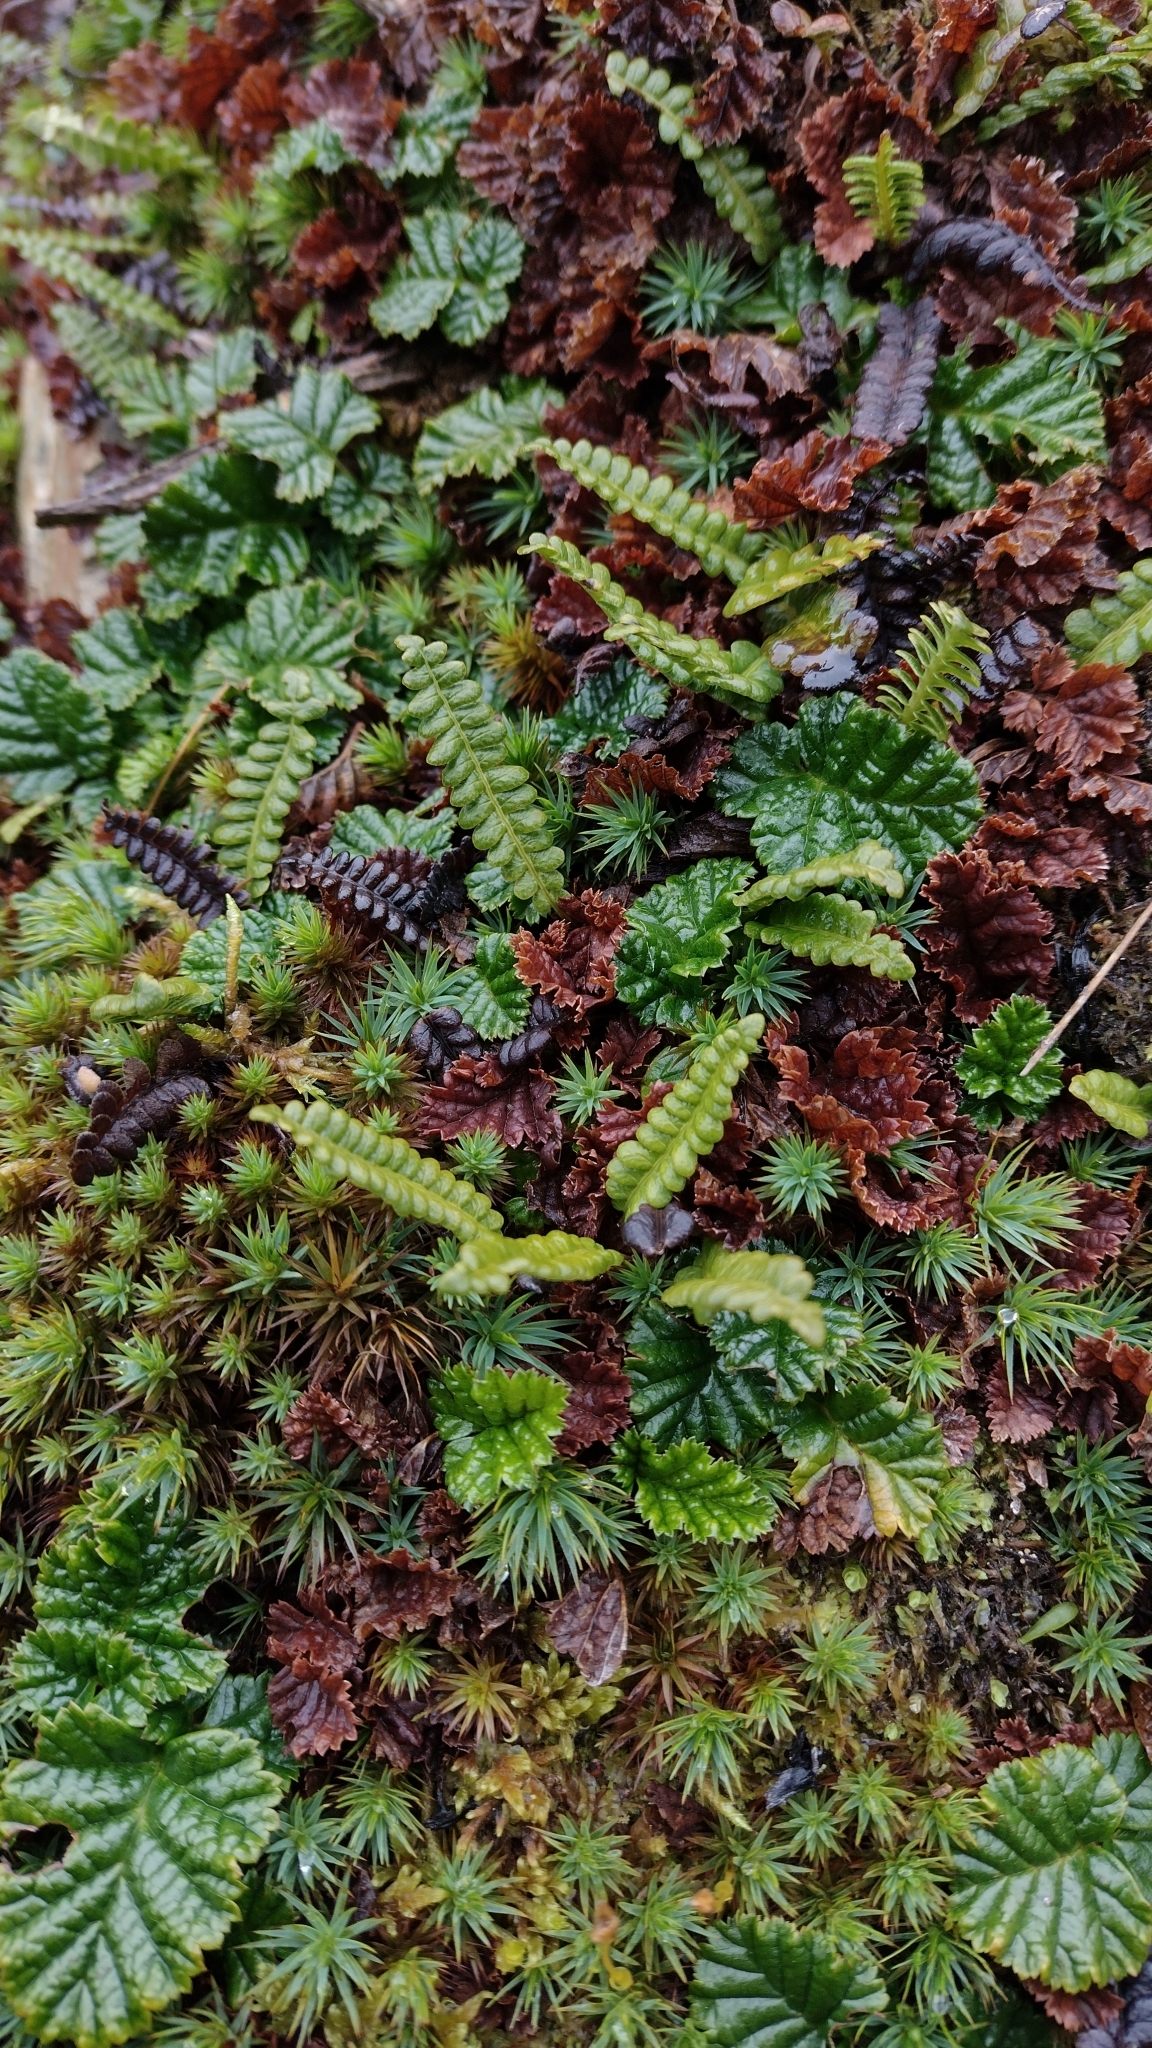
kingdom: Plantae
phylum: Tracheophyta
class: Polypodiopsida
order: Polypodiales
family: Blechnaceae
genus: Austroblechnum
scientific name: Austroblechnum penna-marina
